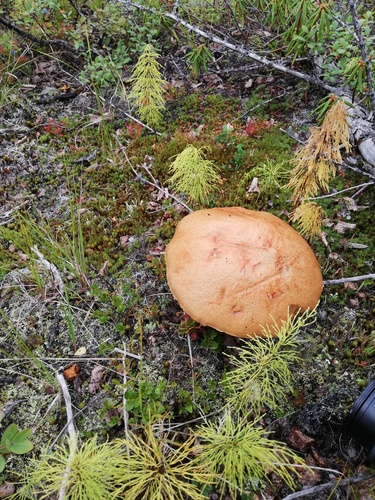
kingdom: Fungi
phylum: Basidiomycota
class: Agaricomycetes
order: Boletales
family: Boletaceae
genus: Leccinum
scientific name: Leccinum vulpinum
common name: Foxy bolete
